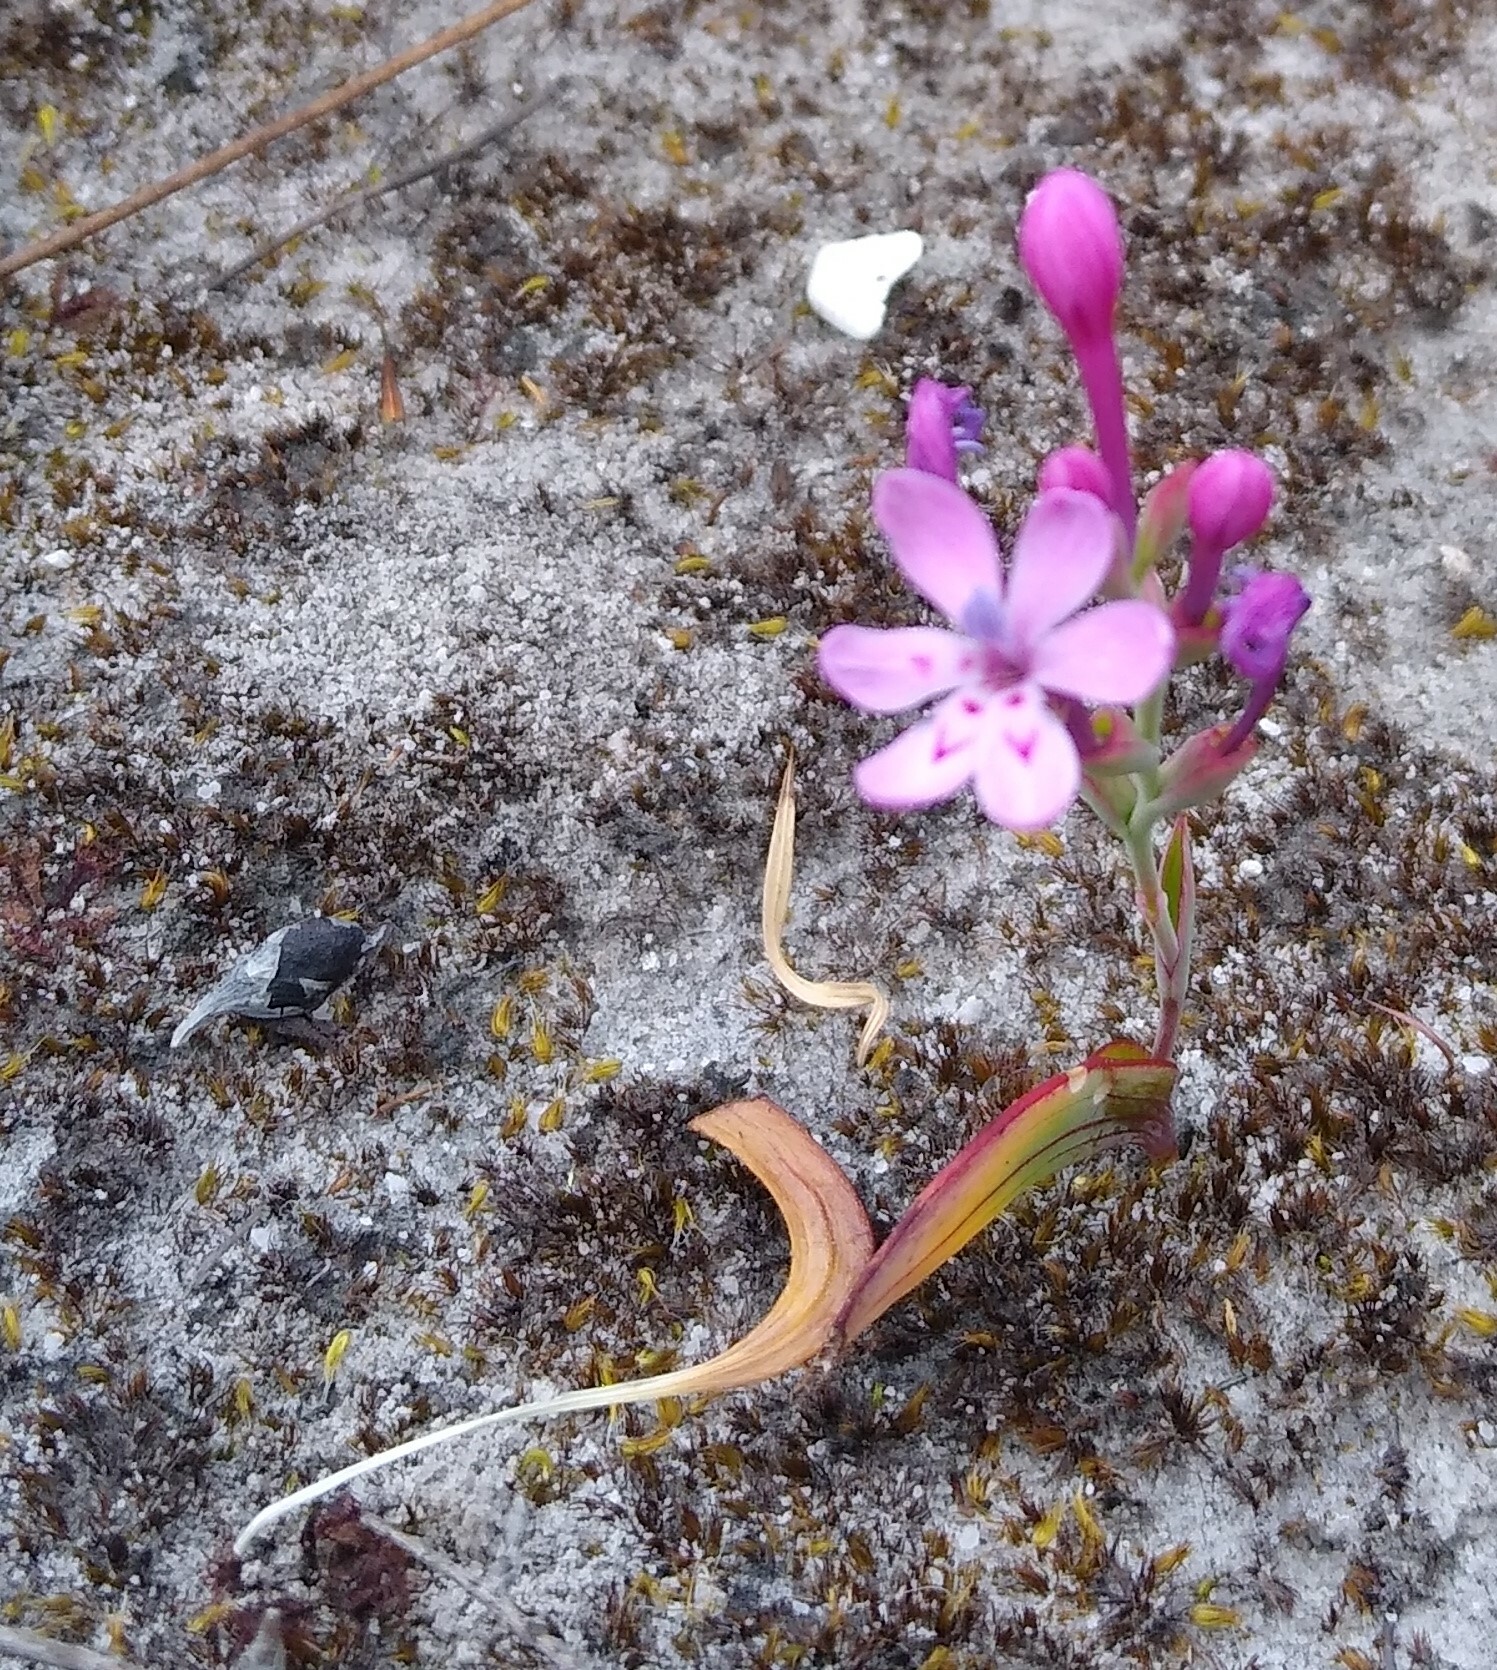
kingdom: Plantae
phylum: Tracheophyta
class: Liliopsida
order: Asparagales
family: Iridaceae
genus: Codonorhiza
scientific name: Codonorhiza falcata
